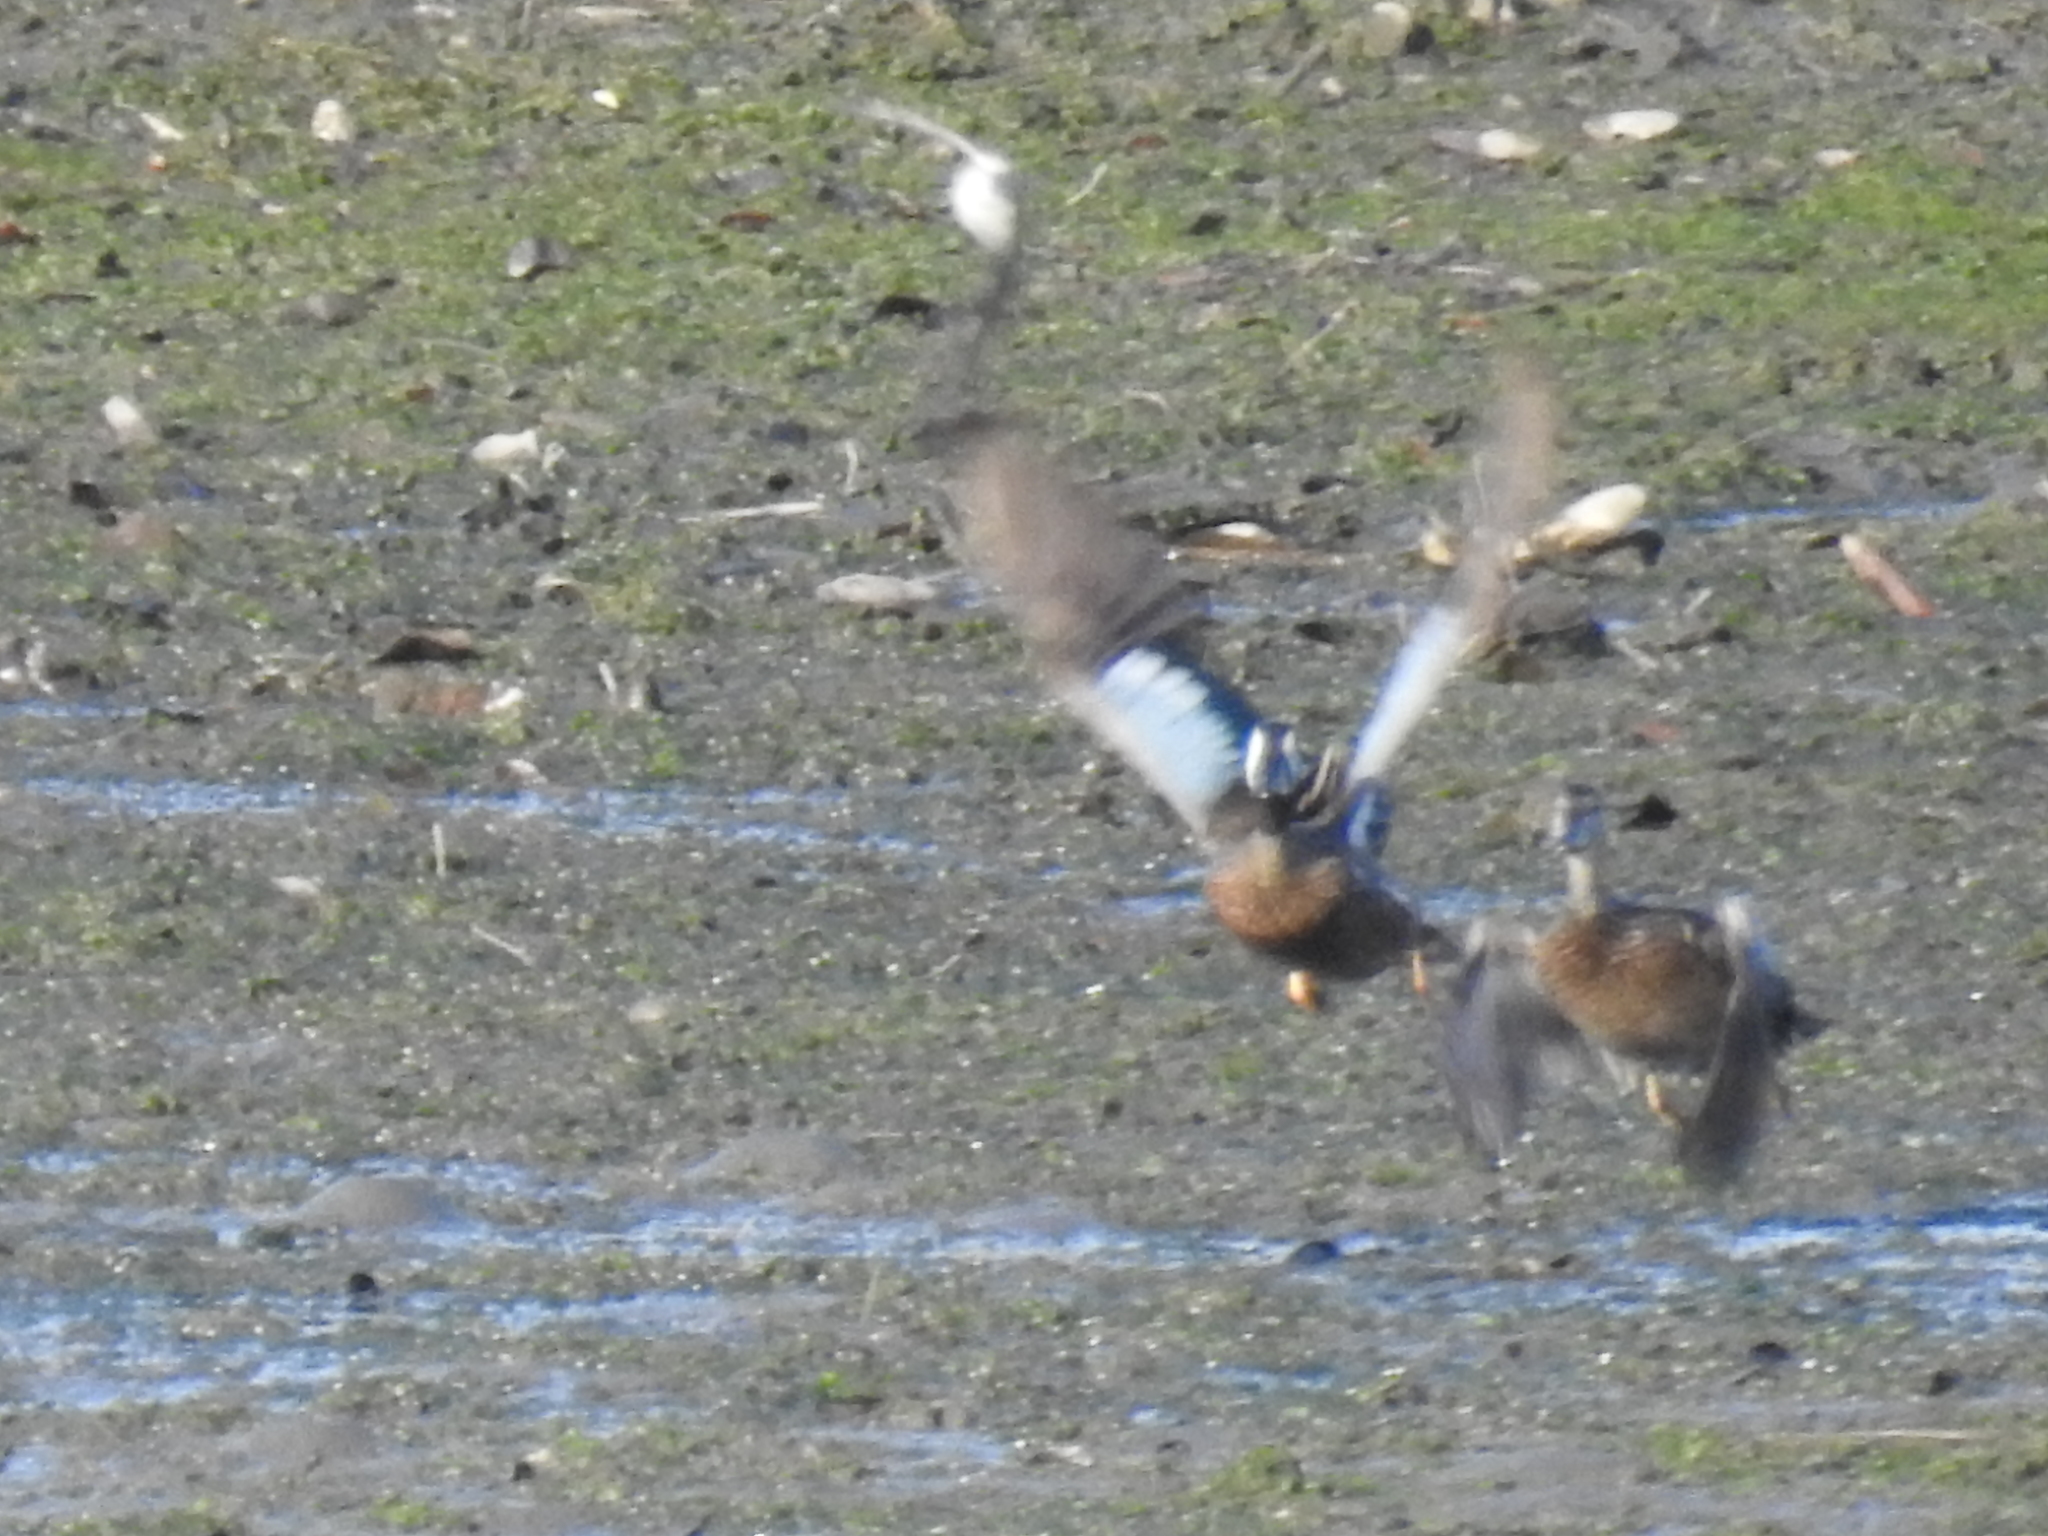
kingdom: Animalia
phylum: Chordata
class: Aves
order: Anseriformes
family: Anatidae
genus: Spatula
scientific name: Spatula discors
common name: Blue-winged teal
